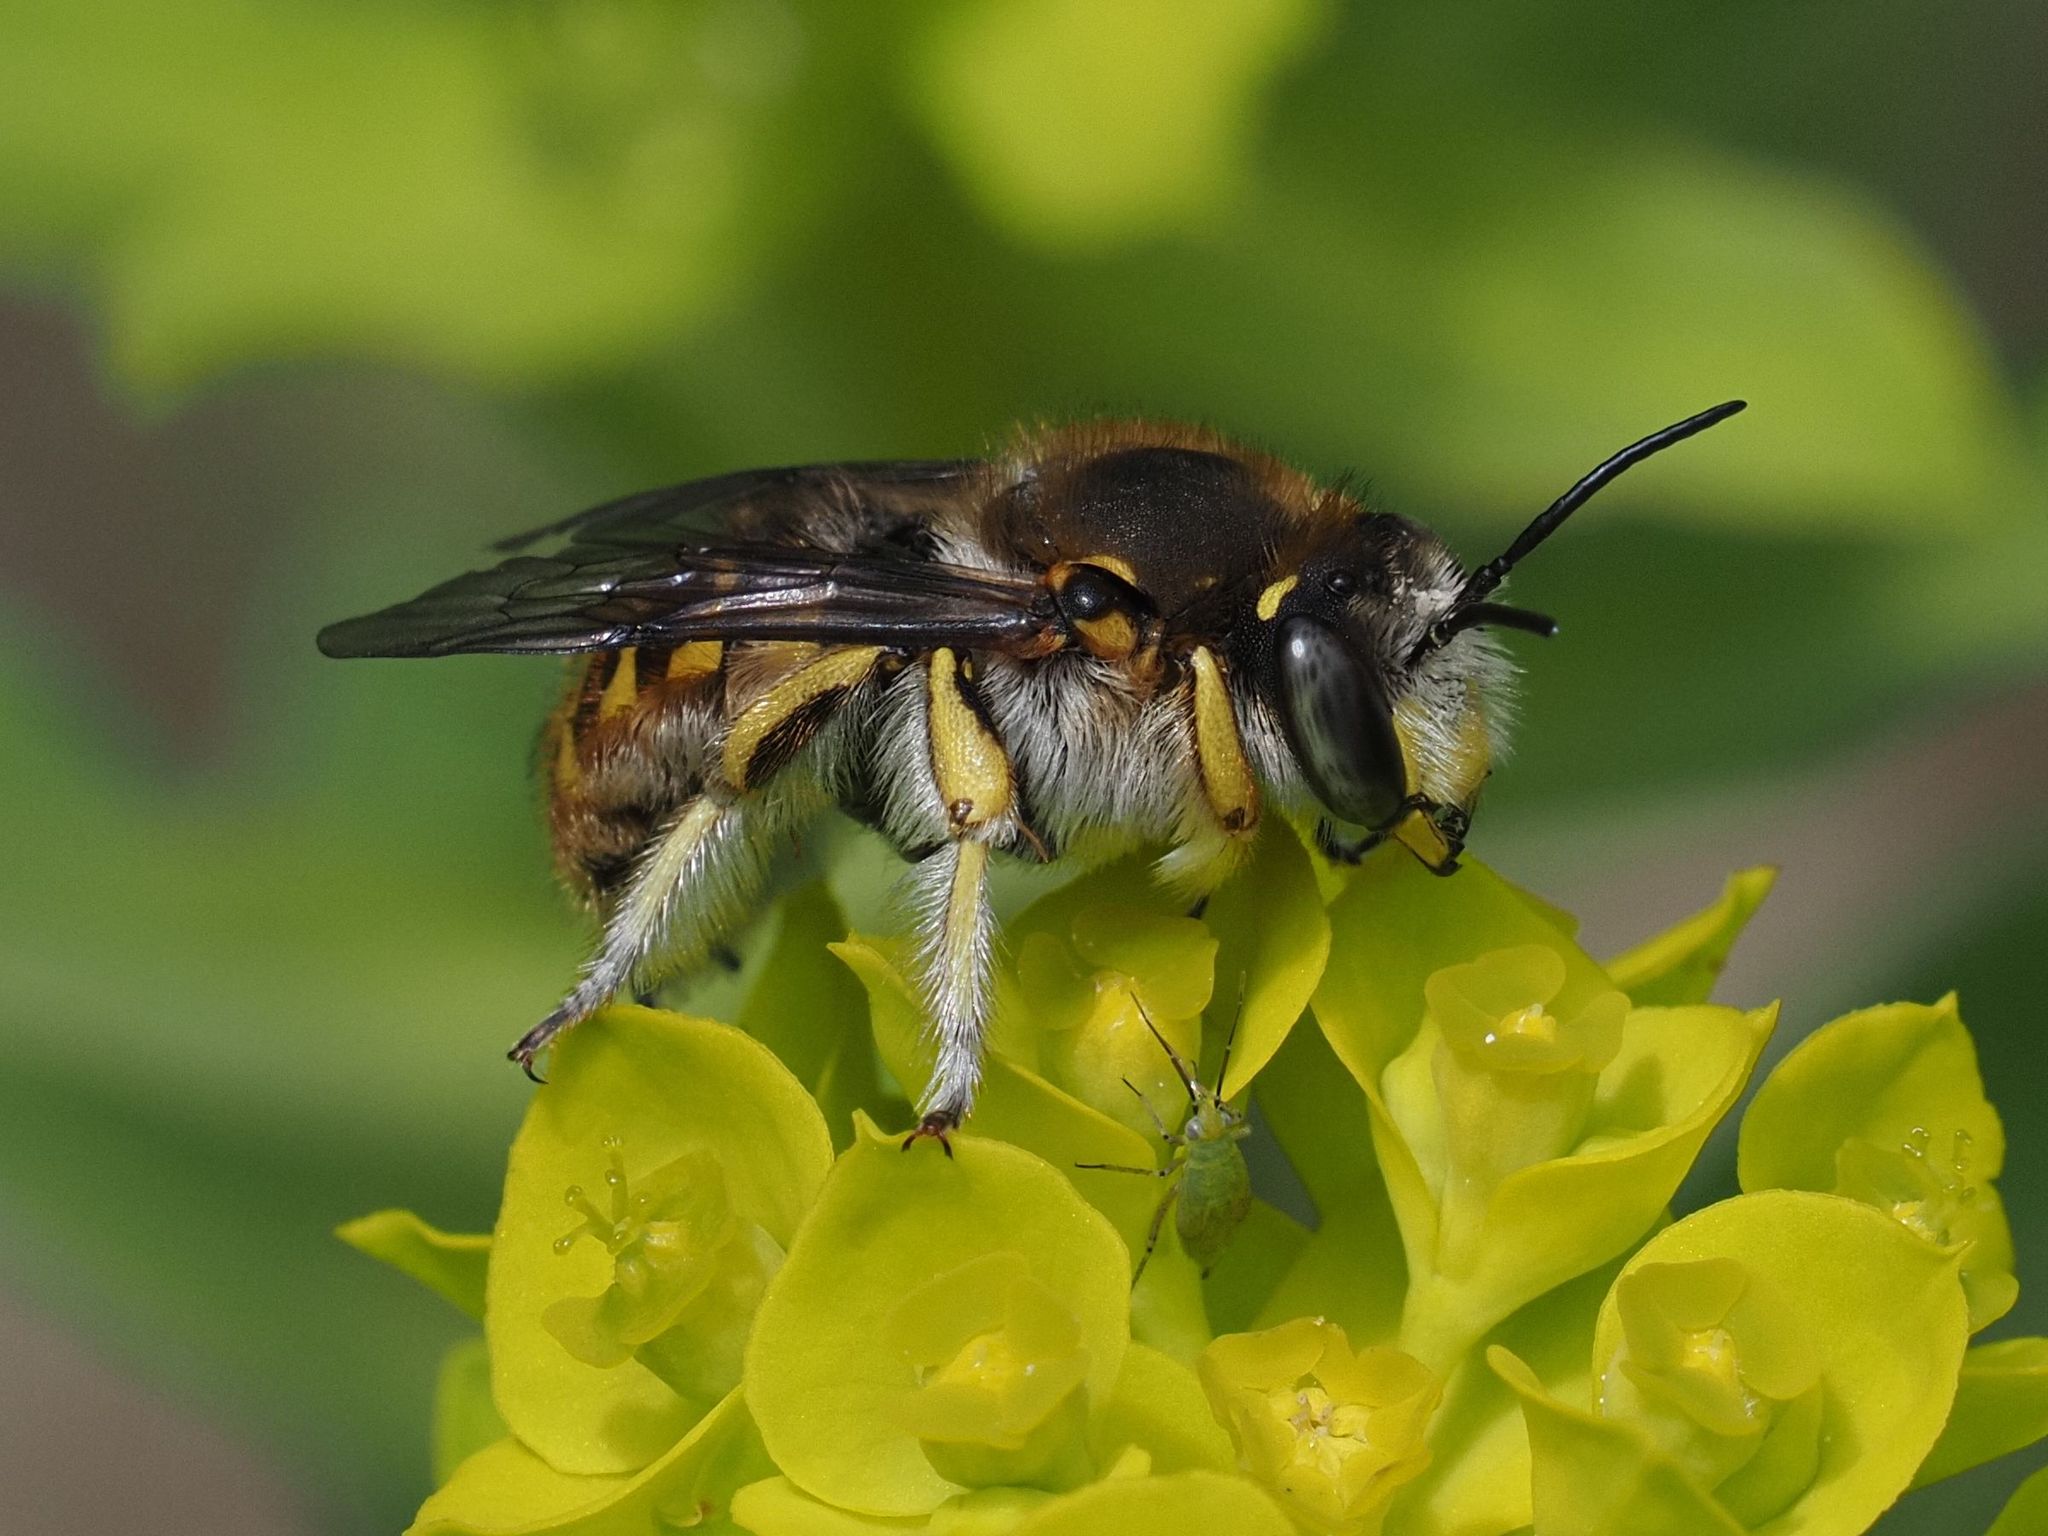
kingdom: Animalia
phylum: Arthropoda
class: Insecta
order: Hymenoptera
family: Megachilidae
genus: Anthidium
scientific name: Anthidium manicatum
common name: Wool carder bee
